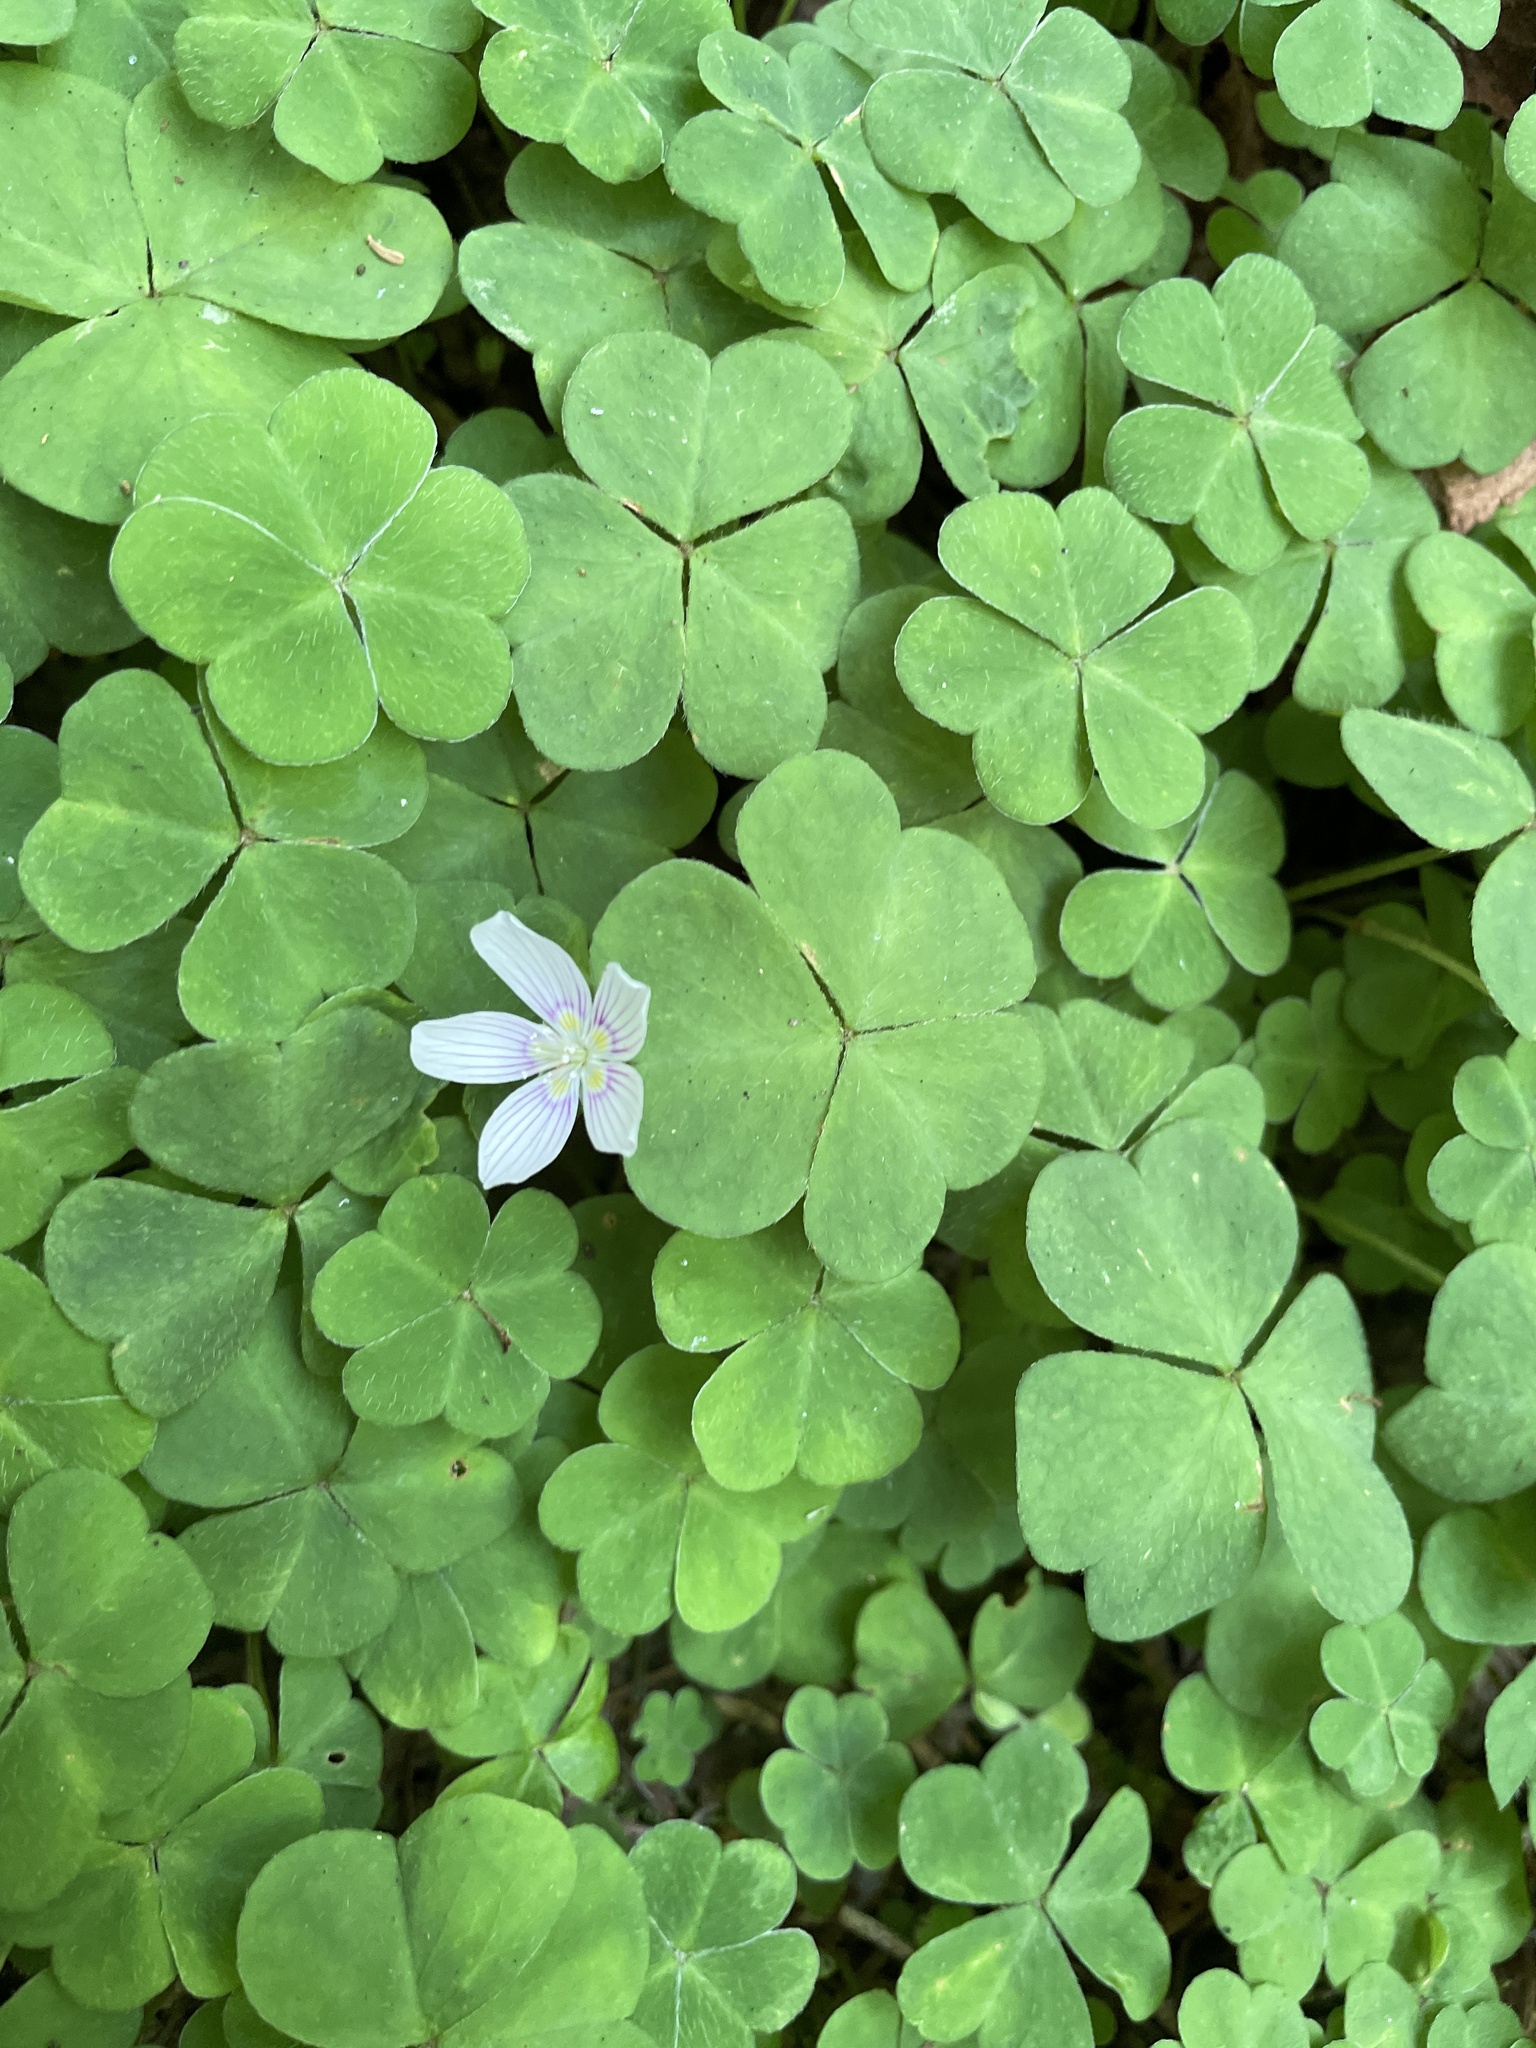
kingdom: Plantae
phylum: Tracheophyta
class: Magnoliopsida
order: Oxalidales
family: Oxalidaceae
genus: Oxalis
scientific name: Oxalis montana
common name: American wood-sorrel
